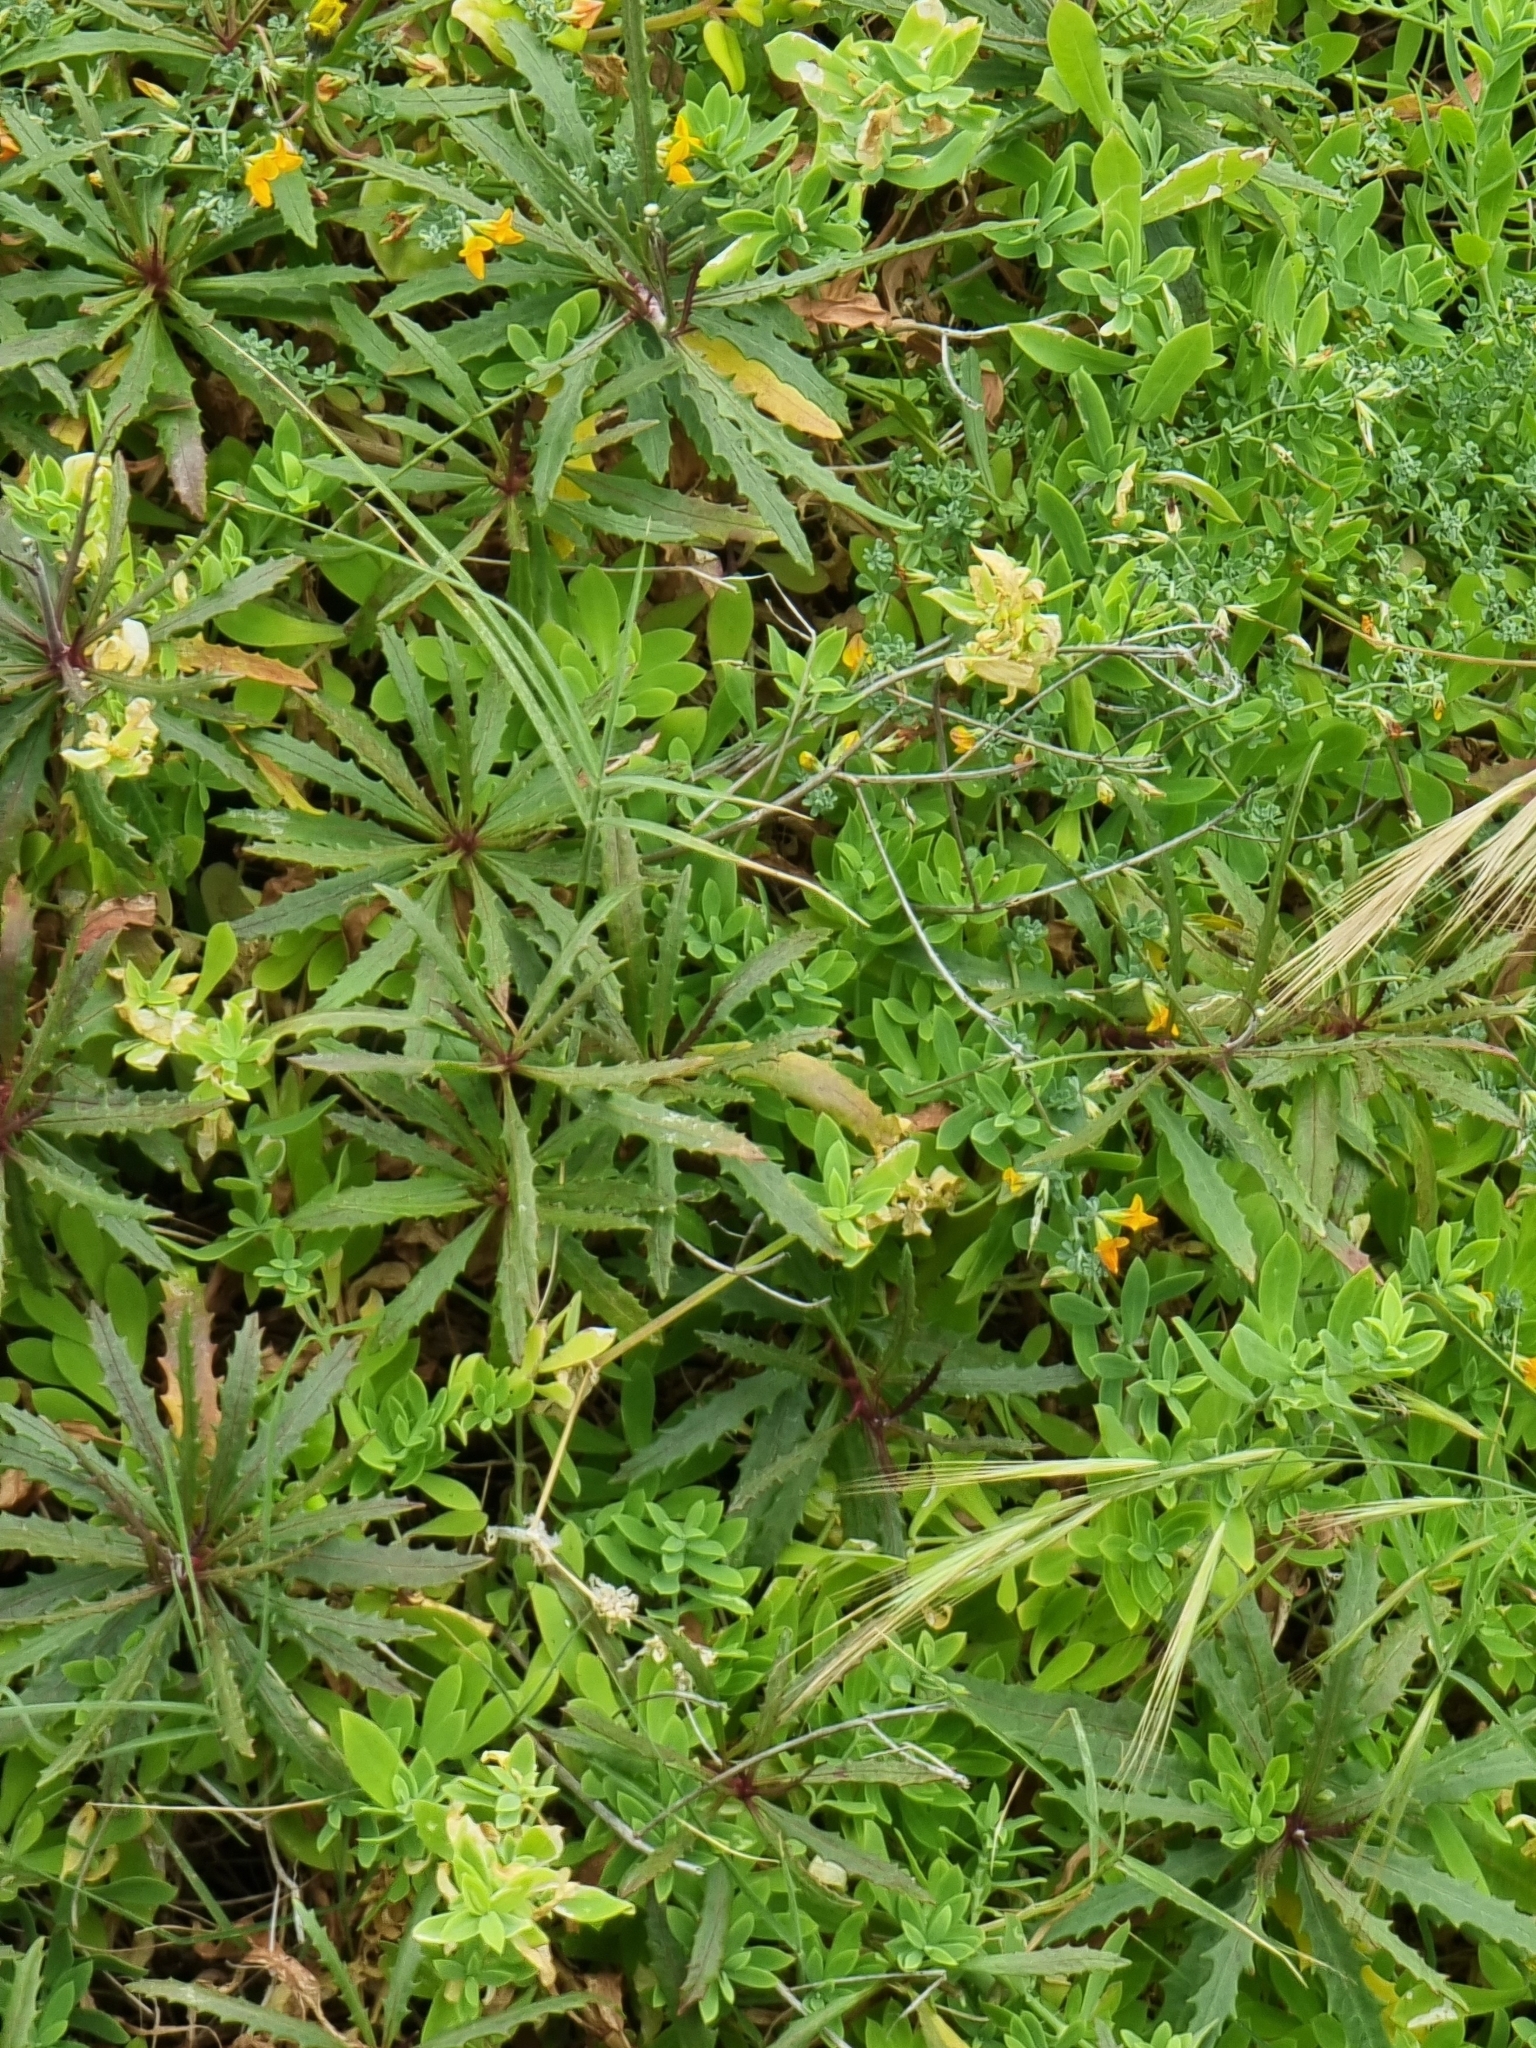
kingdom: Plantae
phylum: Tracheophyta
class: Magnoliopsida
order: Asterales
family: Asteraceae
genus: Tolpis
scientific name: Tolpis succulenta
